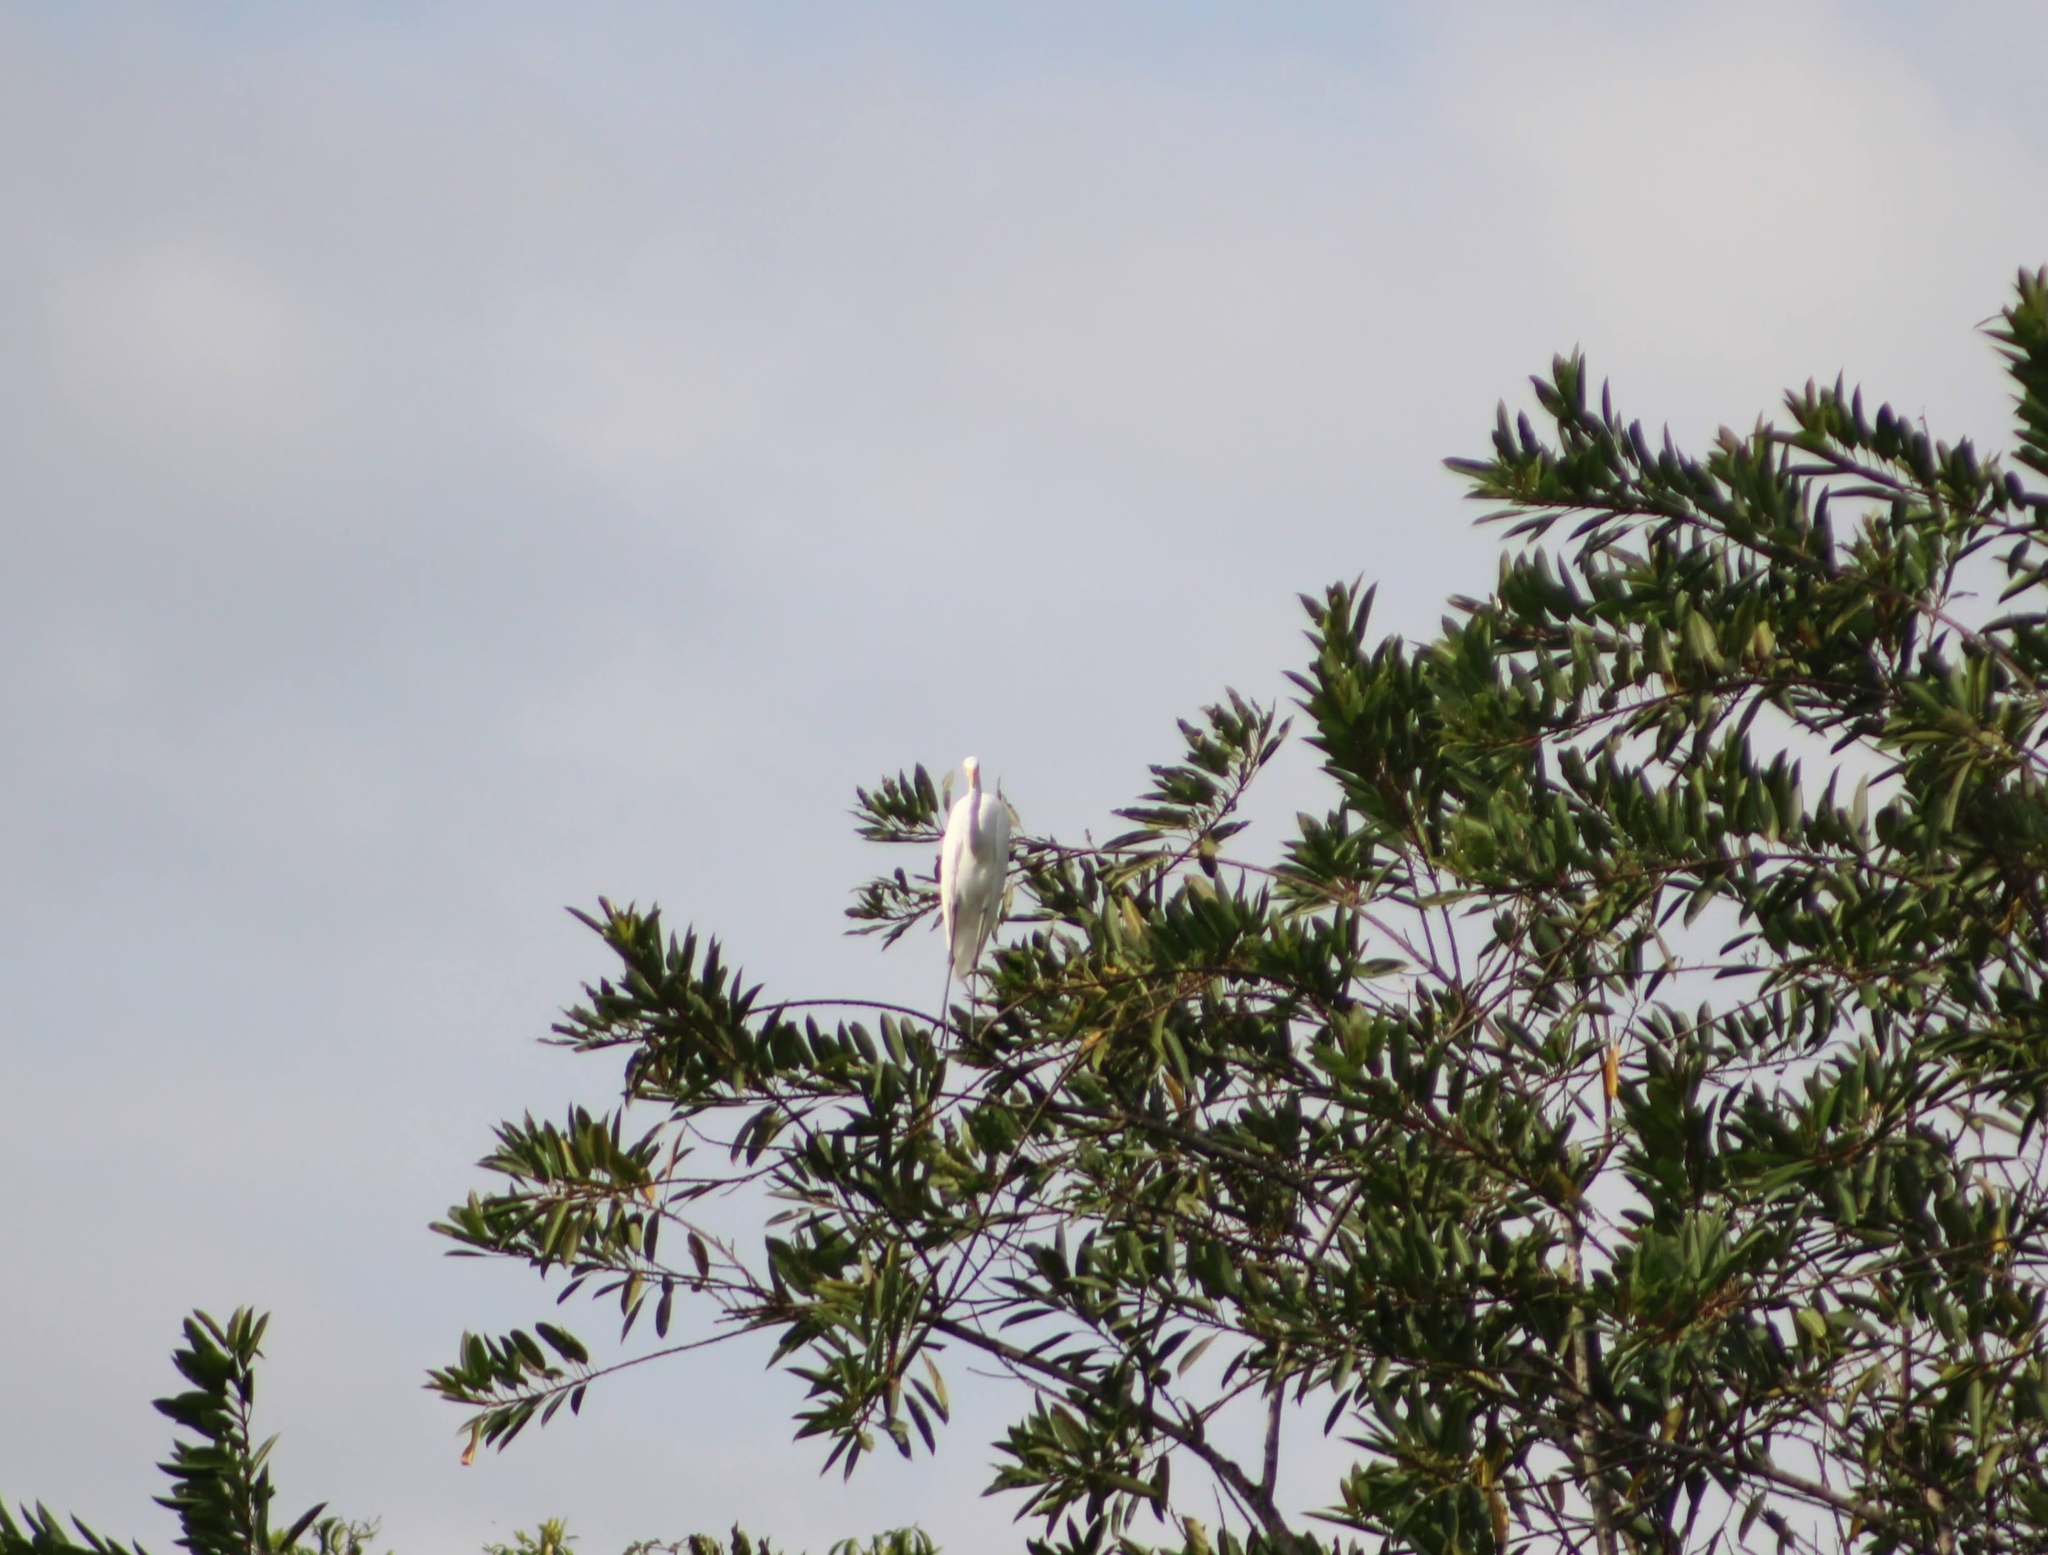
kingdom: Animalia
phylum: Chordata
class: Aves
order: Pelecaniformes
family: Ardeidae
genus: Ardea
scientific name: Ardea alba
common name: Great egret
